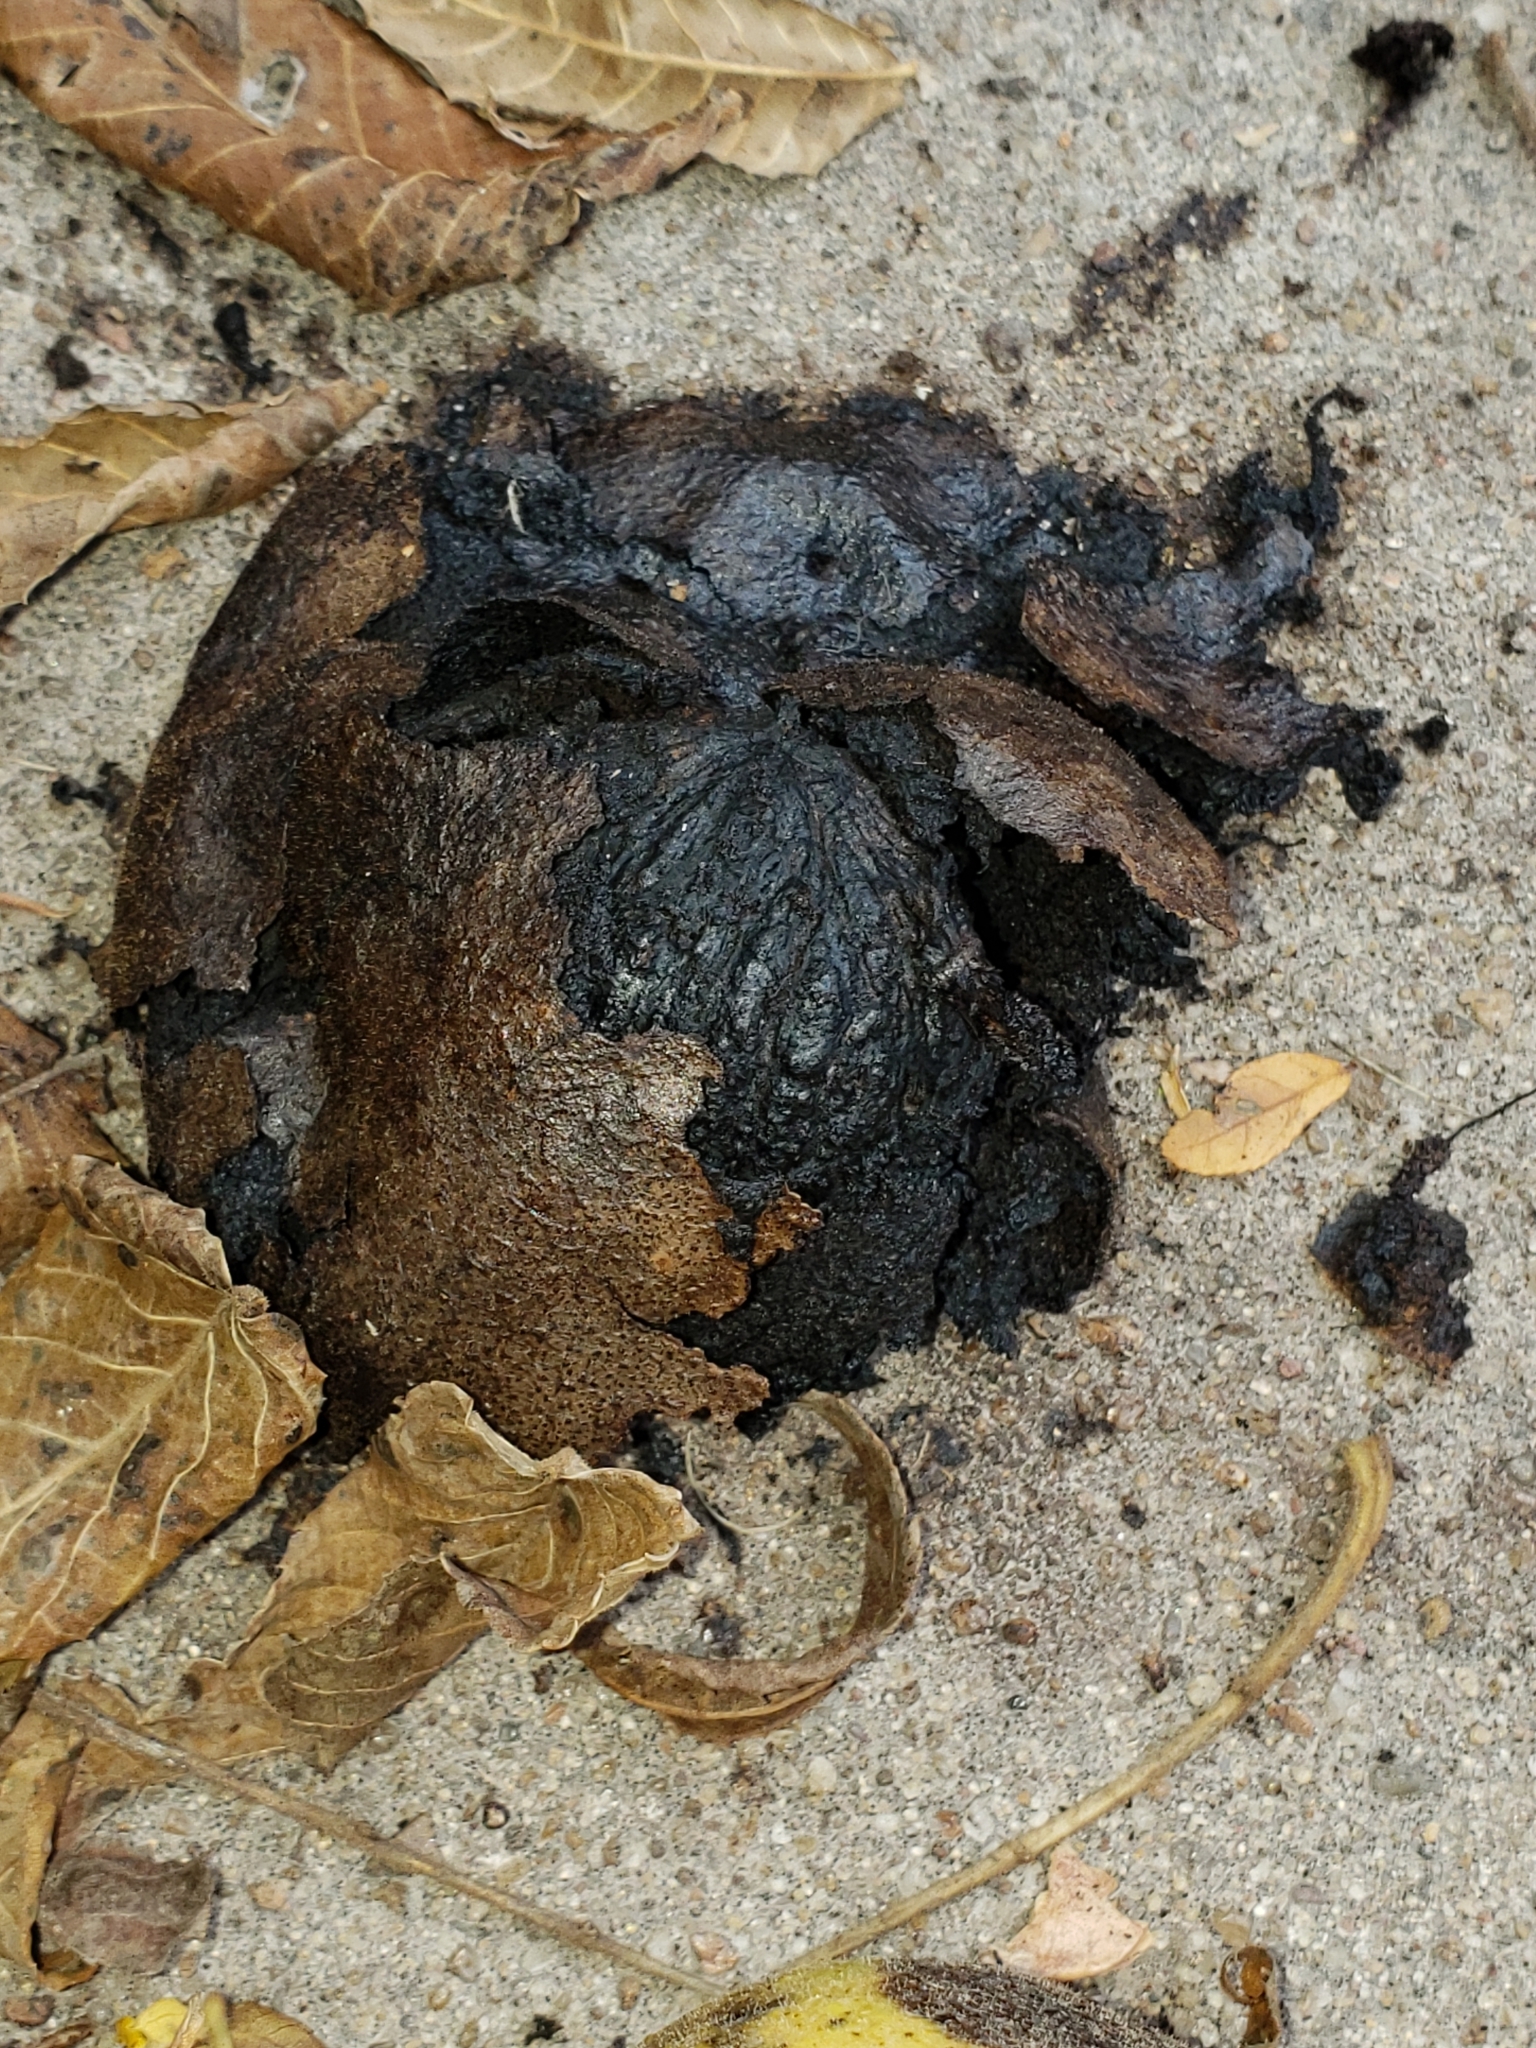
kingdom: Plantae
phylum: Tracheophyta
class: Magnoliopsida
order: Fagales
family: Juglandaceae
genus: Juglans
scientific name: Juglans nigra
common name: Black walnut
